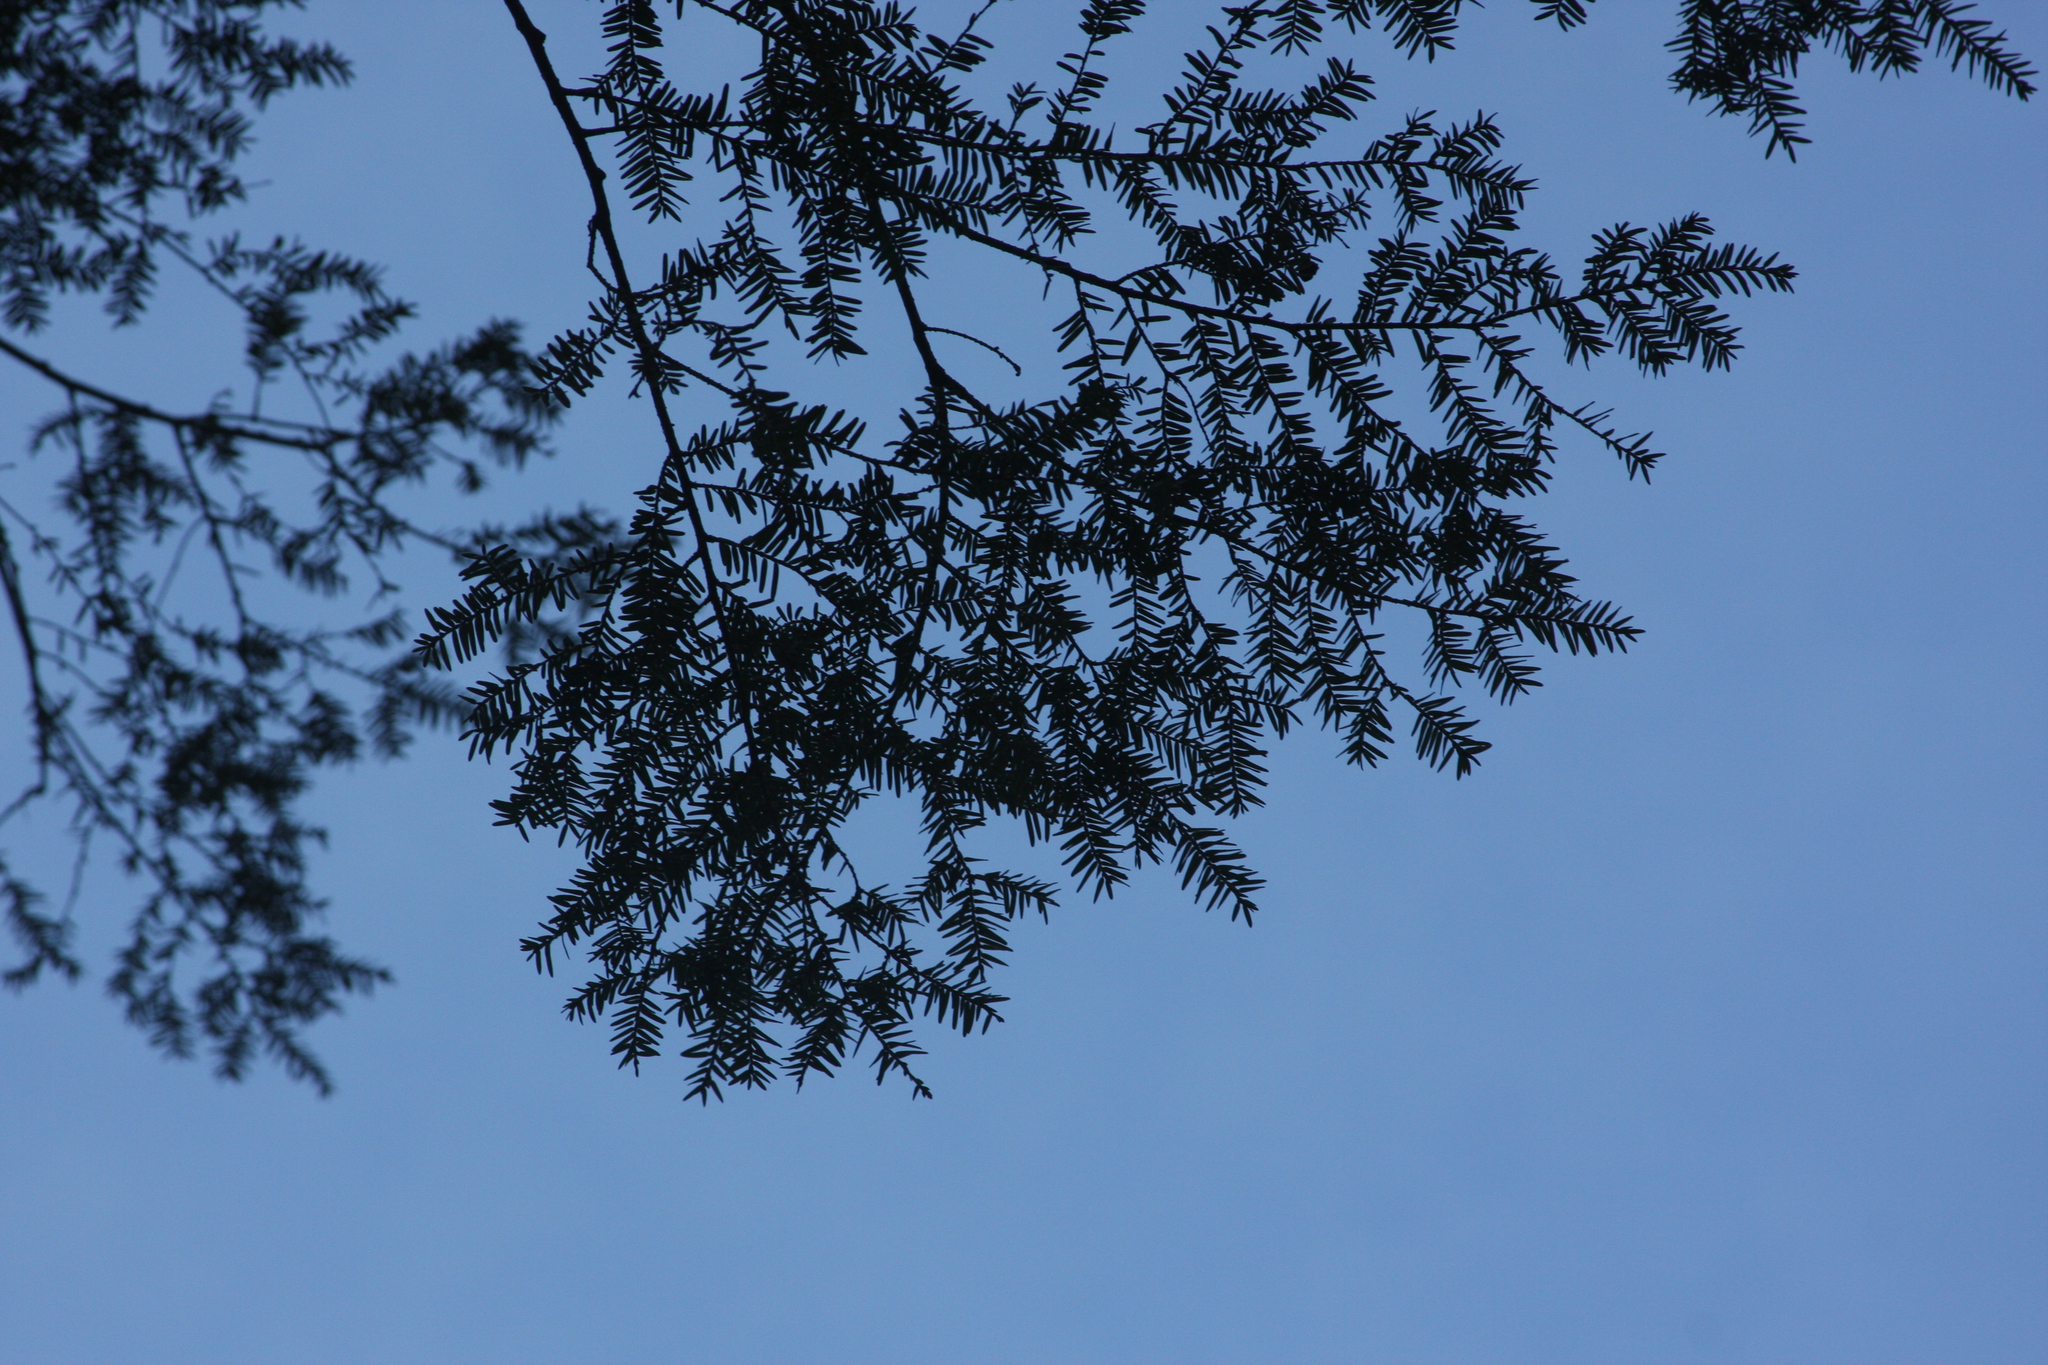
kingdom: Plantae
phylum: Tracheophyta
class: Pinopsida
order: Pinales
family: Pinaceae
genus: Tsuga
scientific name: Tsuga canadensis
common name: Eastern hemlock
